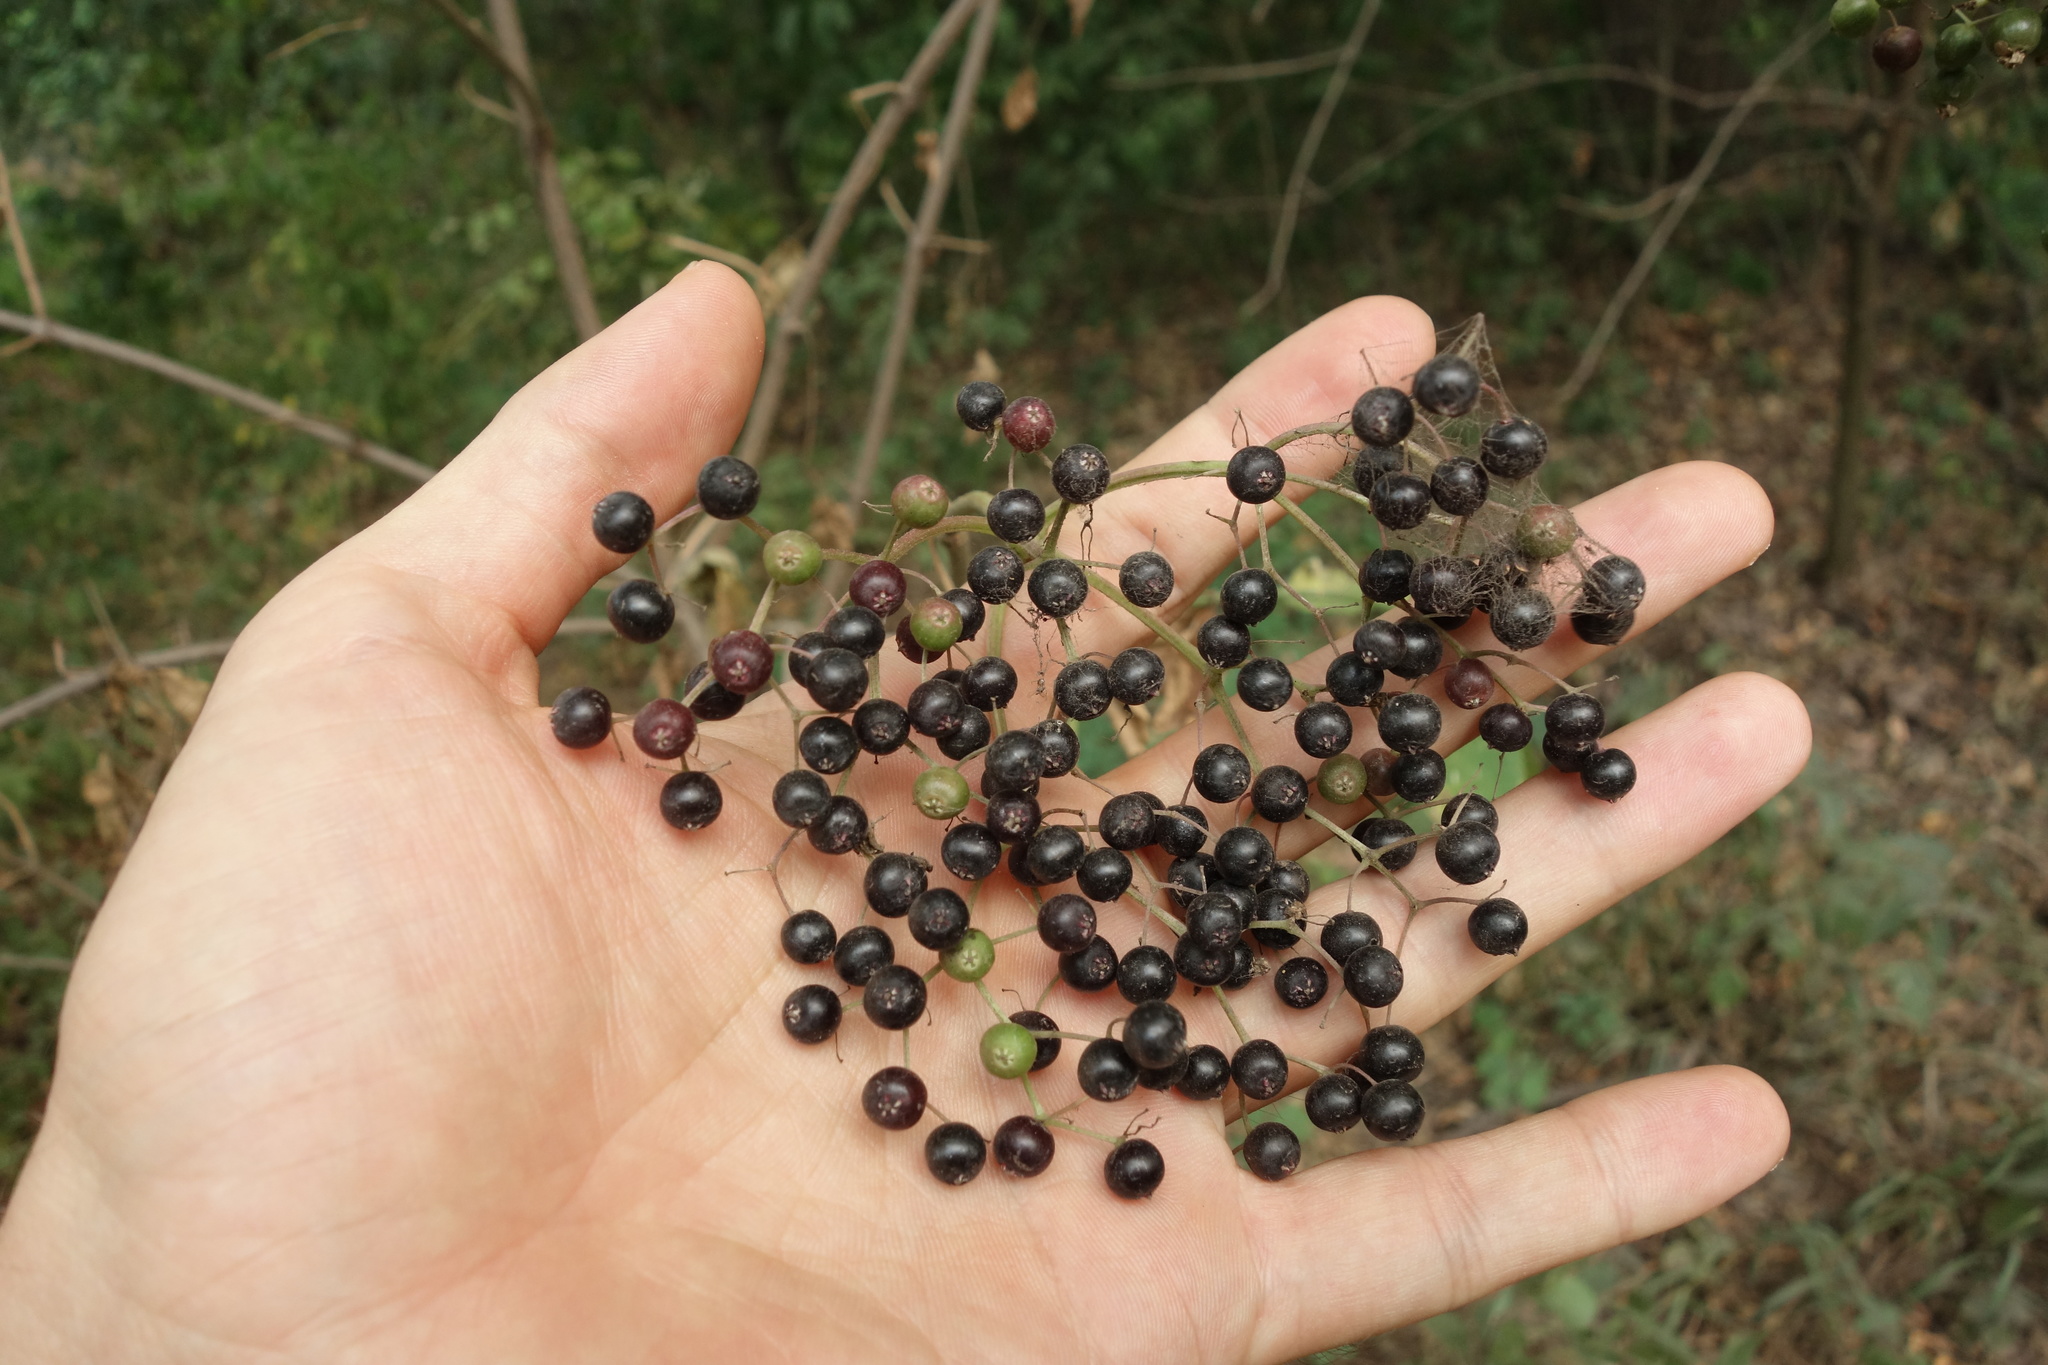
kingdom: Plantae
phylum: Tracheophyta
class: Magnoliopsida
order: Dipsacales
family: Viburnaceae
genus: Sambucus
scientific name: Sambucus nigra
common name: Elder
